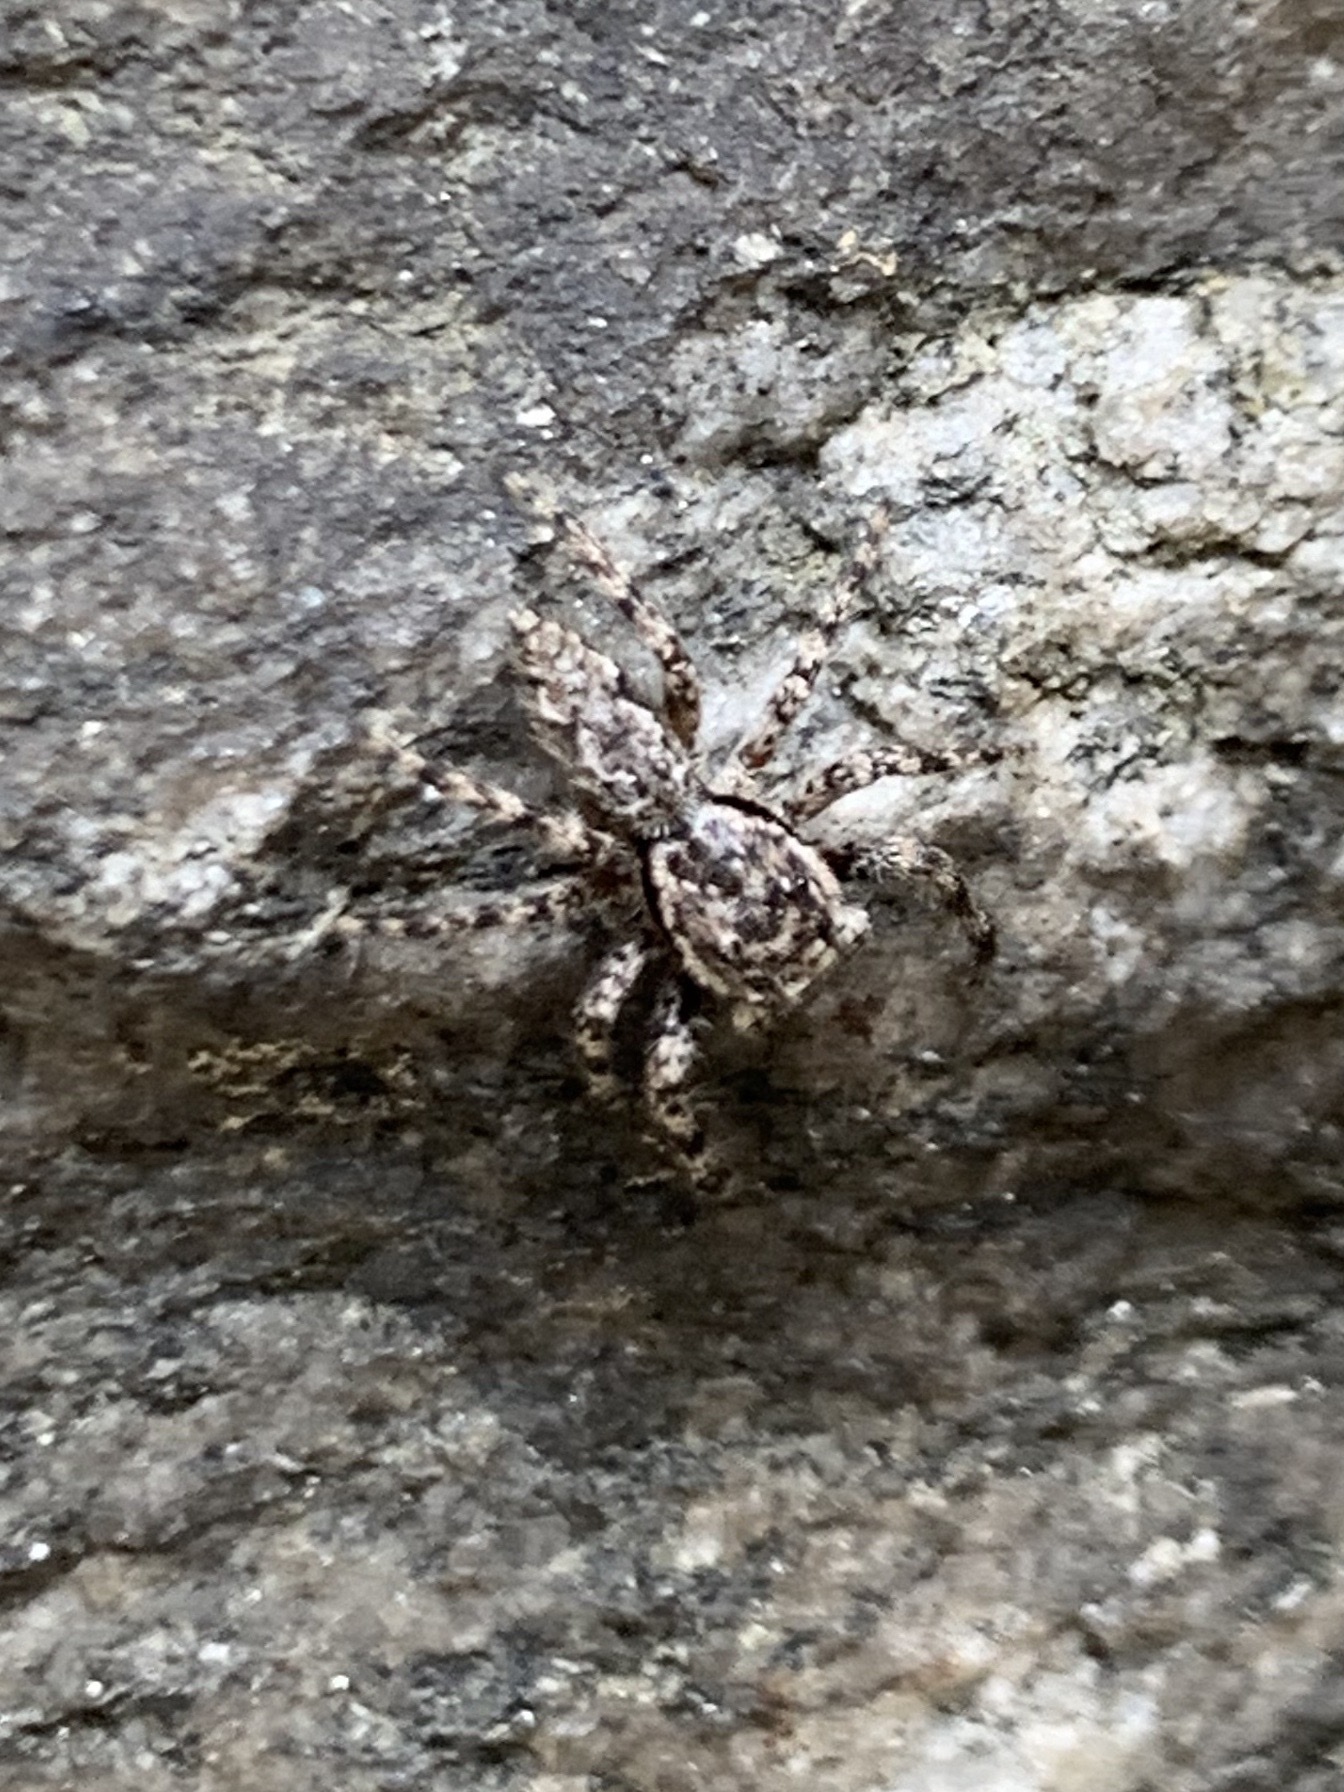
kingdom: Animalia
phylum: Arthropoda
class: Arachnida
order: Araneae
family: Salticidae
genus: Platycryptus
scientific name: Platycryptus undatus
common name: Tan jumping spider
